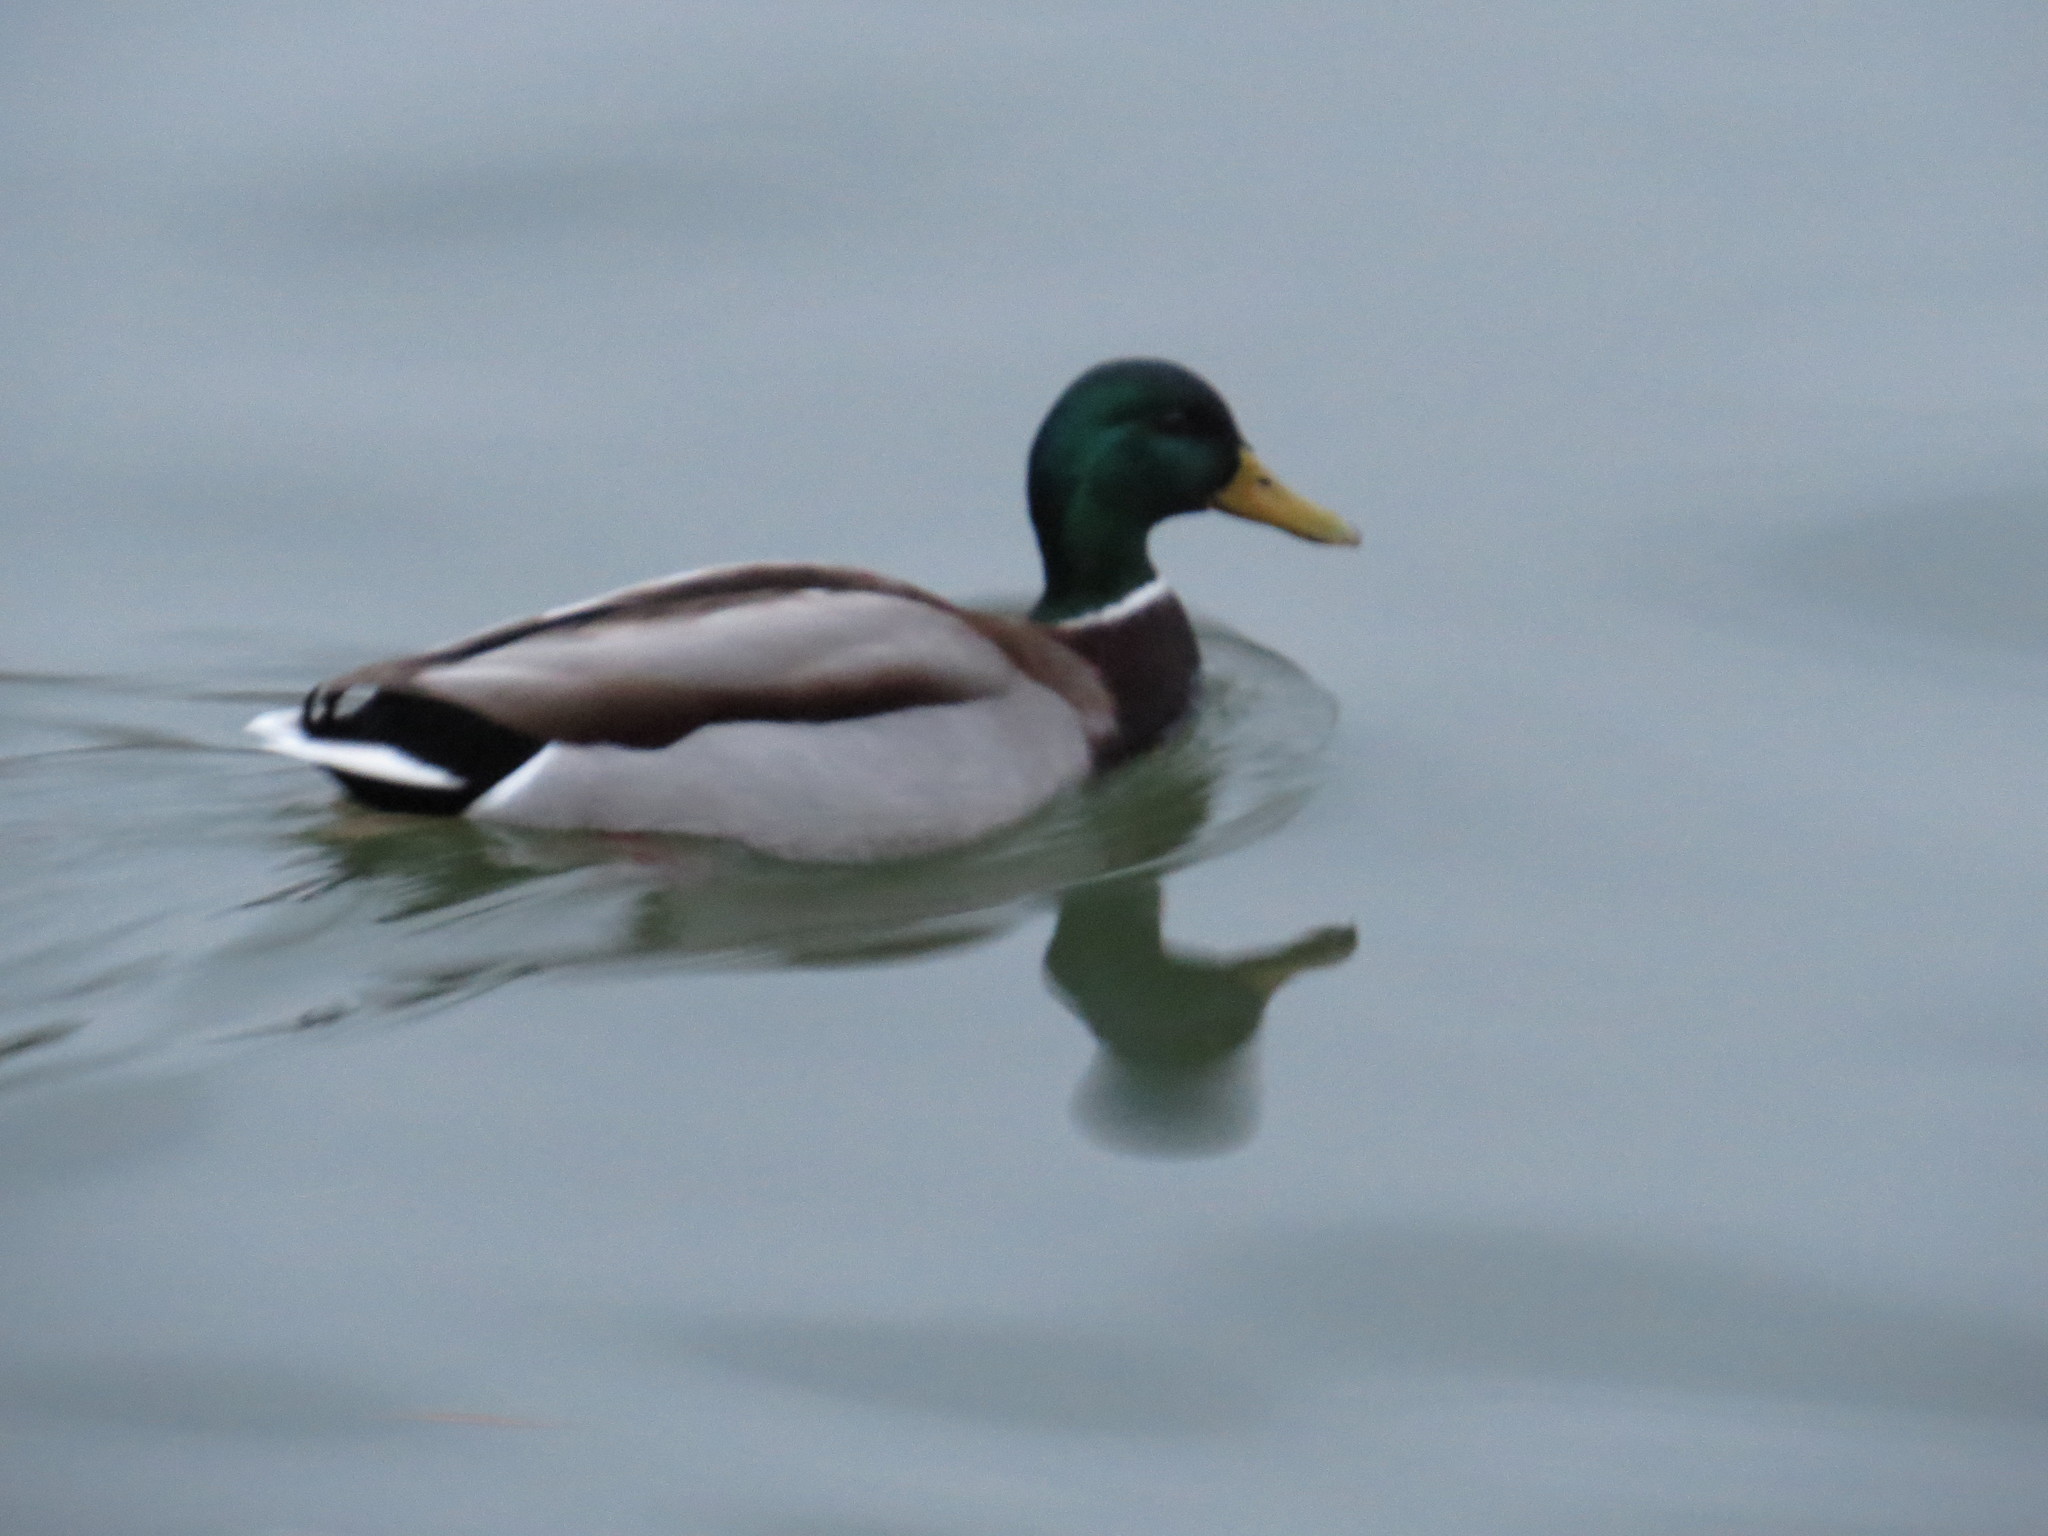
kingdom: Animalia
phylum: Chordata
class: Aves
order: Anseriformes
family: Anatidae
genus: Anas
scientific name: Anas platyrhynchos
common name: Mallard
